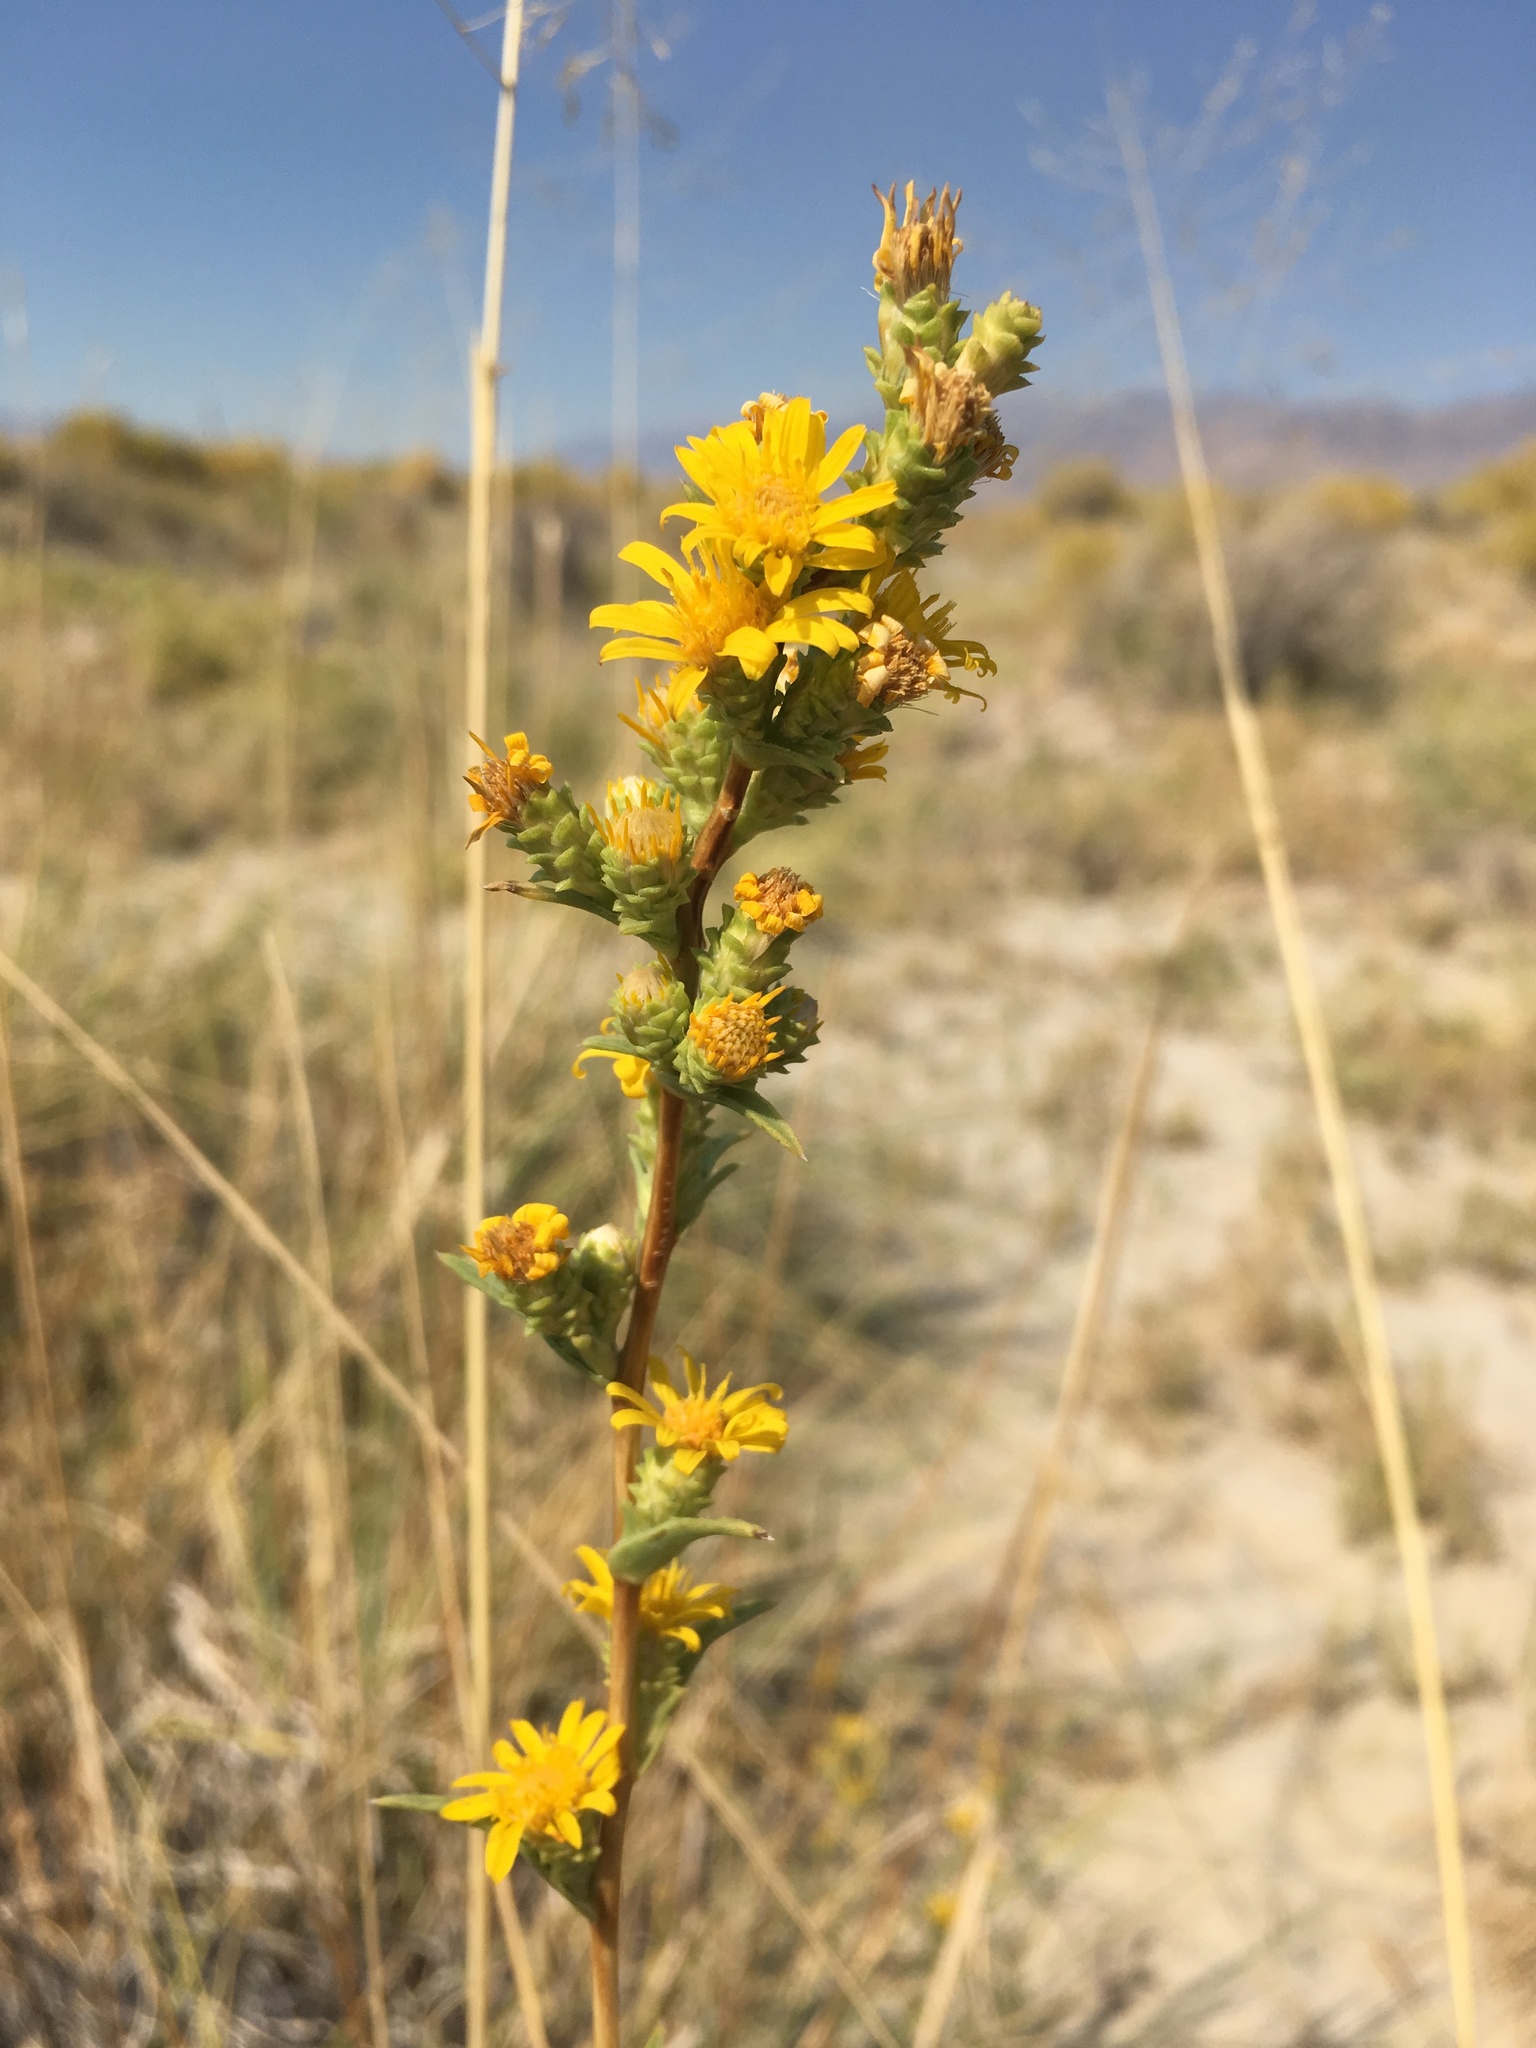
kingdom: Plantae
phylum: Tracheophyta
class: Magnoliopsida
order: Asterales
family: Asteraceae
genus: Pyrrocoma
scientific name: Pyrrocoma racemosa
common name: Clustered goldenweed
